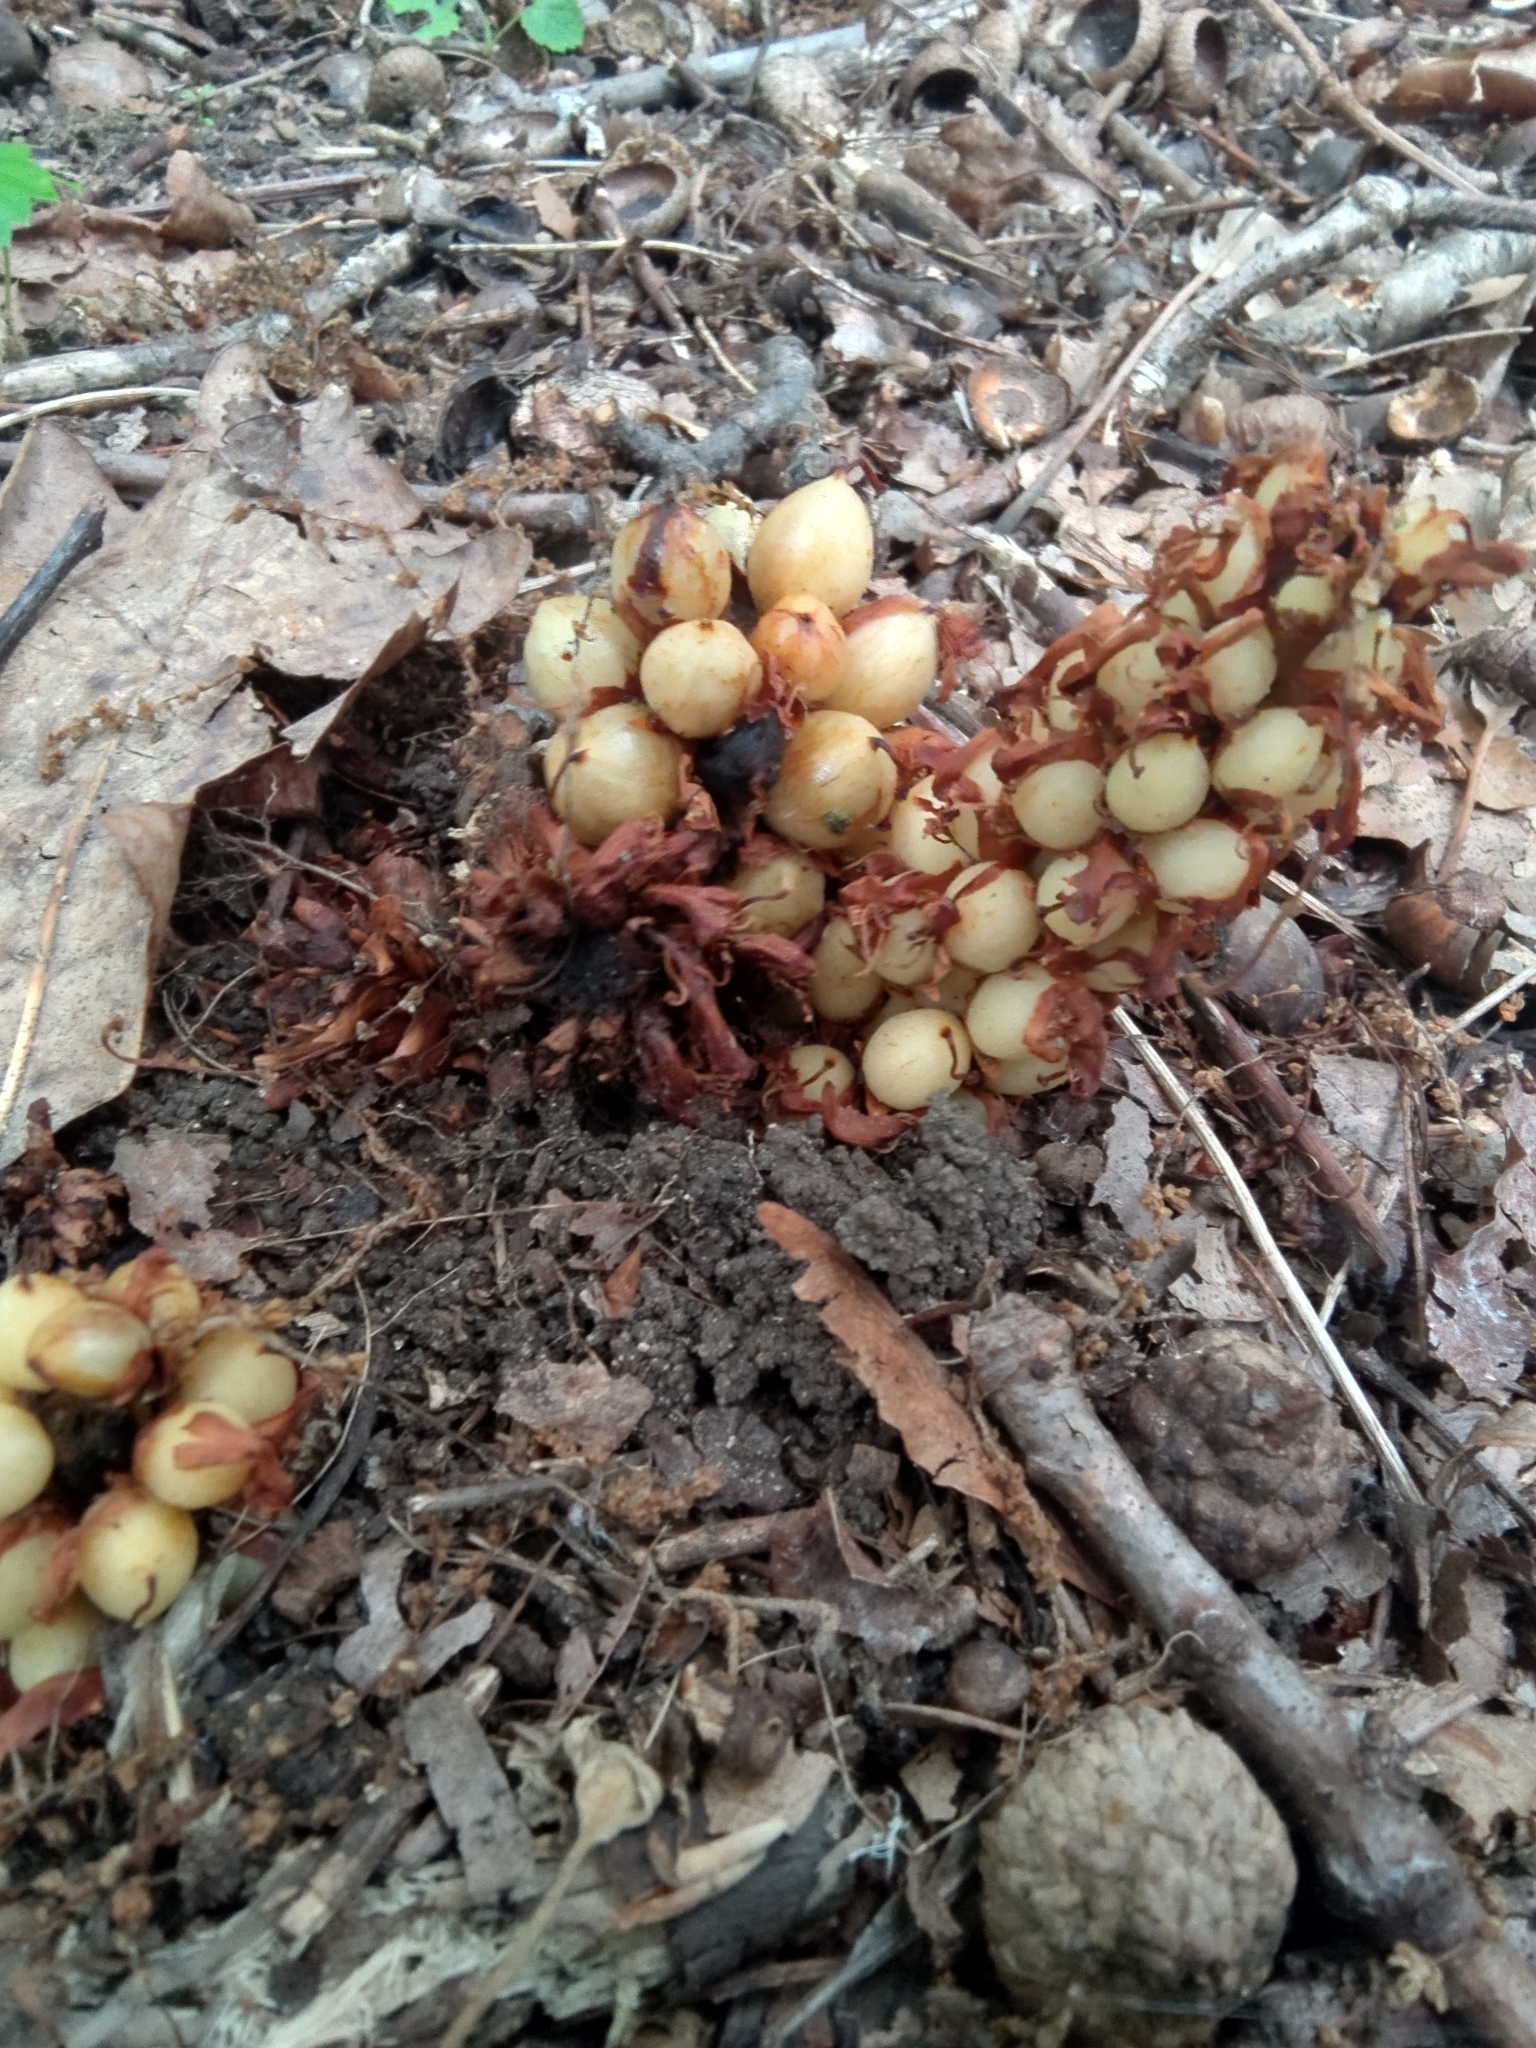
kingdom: Plantae
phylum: Tracheophyta
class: Magnoliopsida
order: Lamiales
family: Orobanchaceae
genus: Conopholis
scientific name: Conopholis americana
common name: American cancer-root
